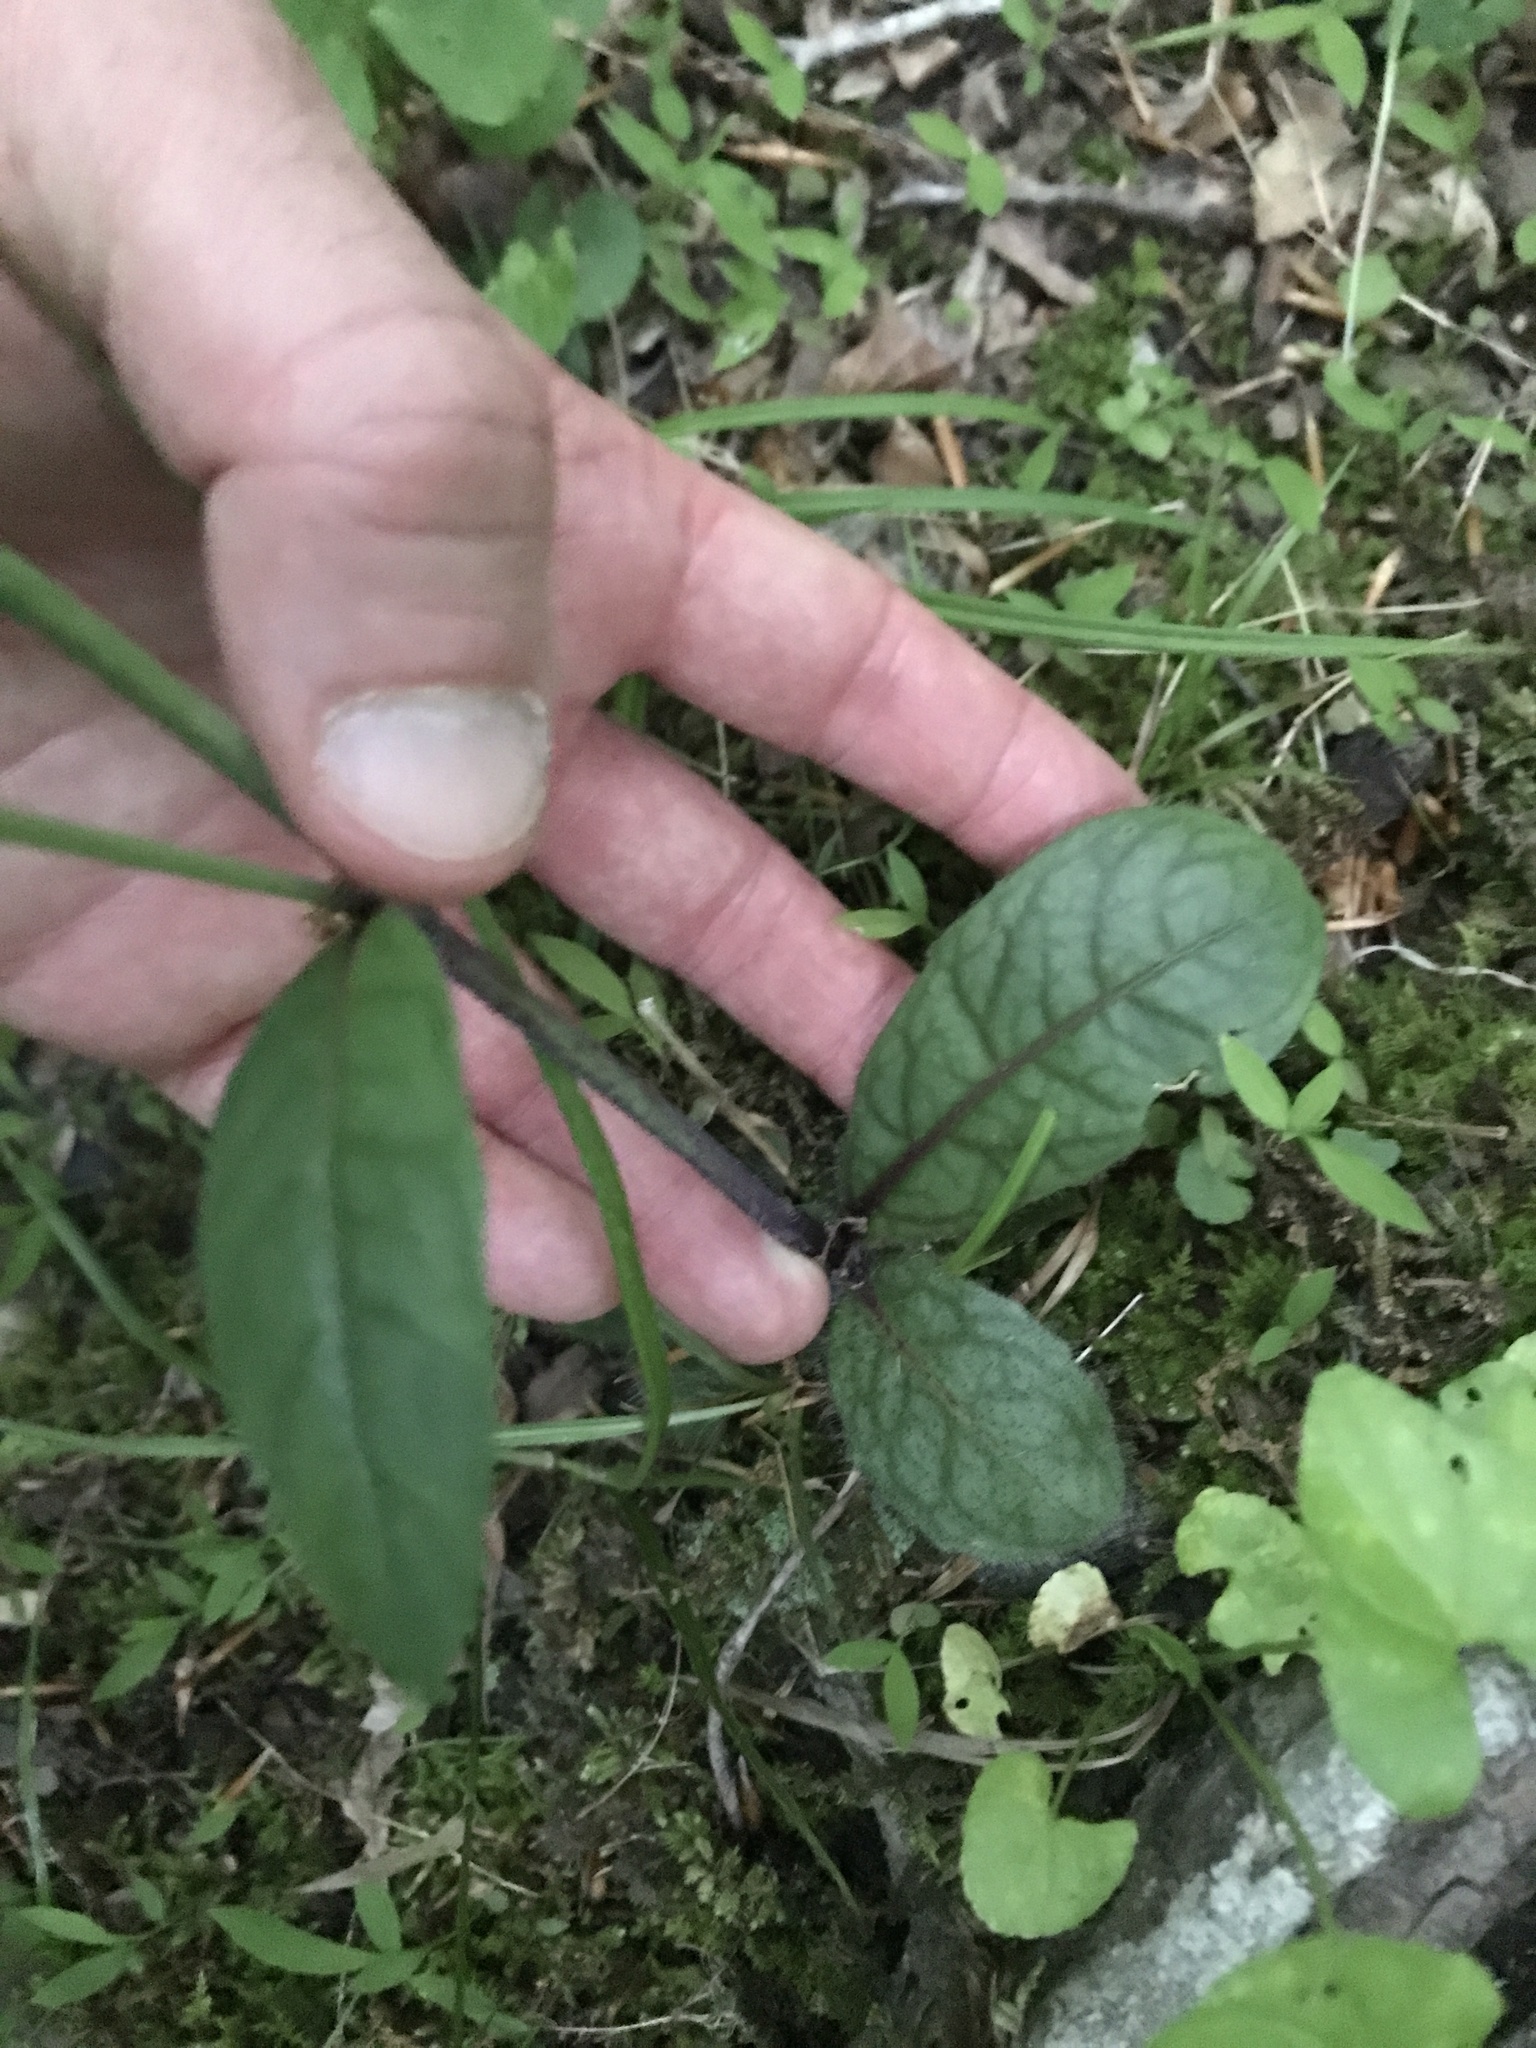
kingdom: Plantae
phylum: Tracheophyta
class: Magnoliopsida
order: Asterales
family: Asteraceae
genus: Hieracium
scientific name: Hieracium venosum
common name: Rattlesnake hawkweed
